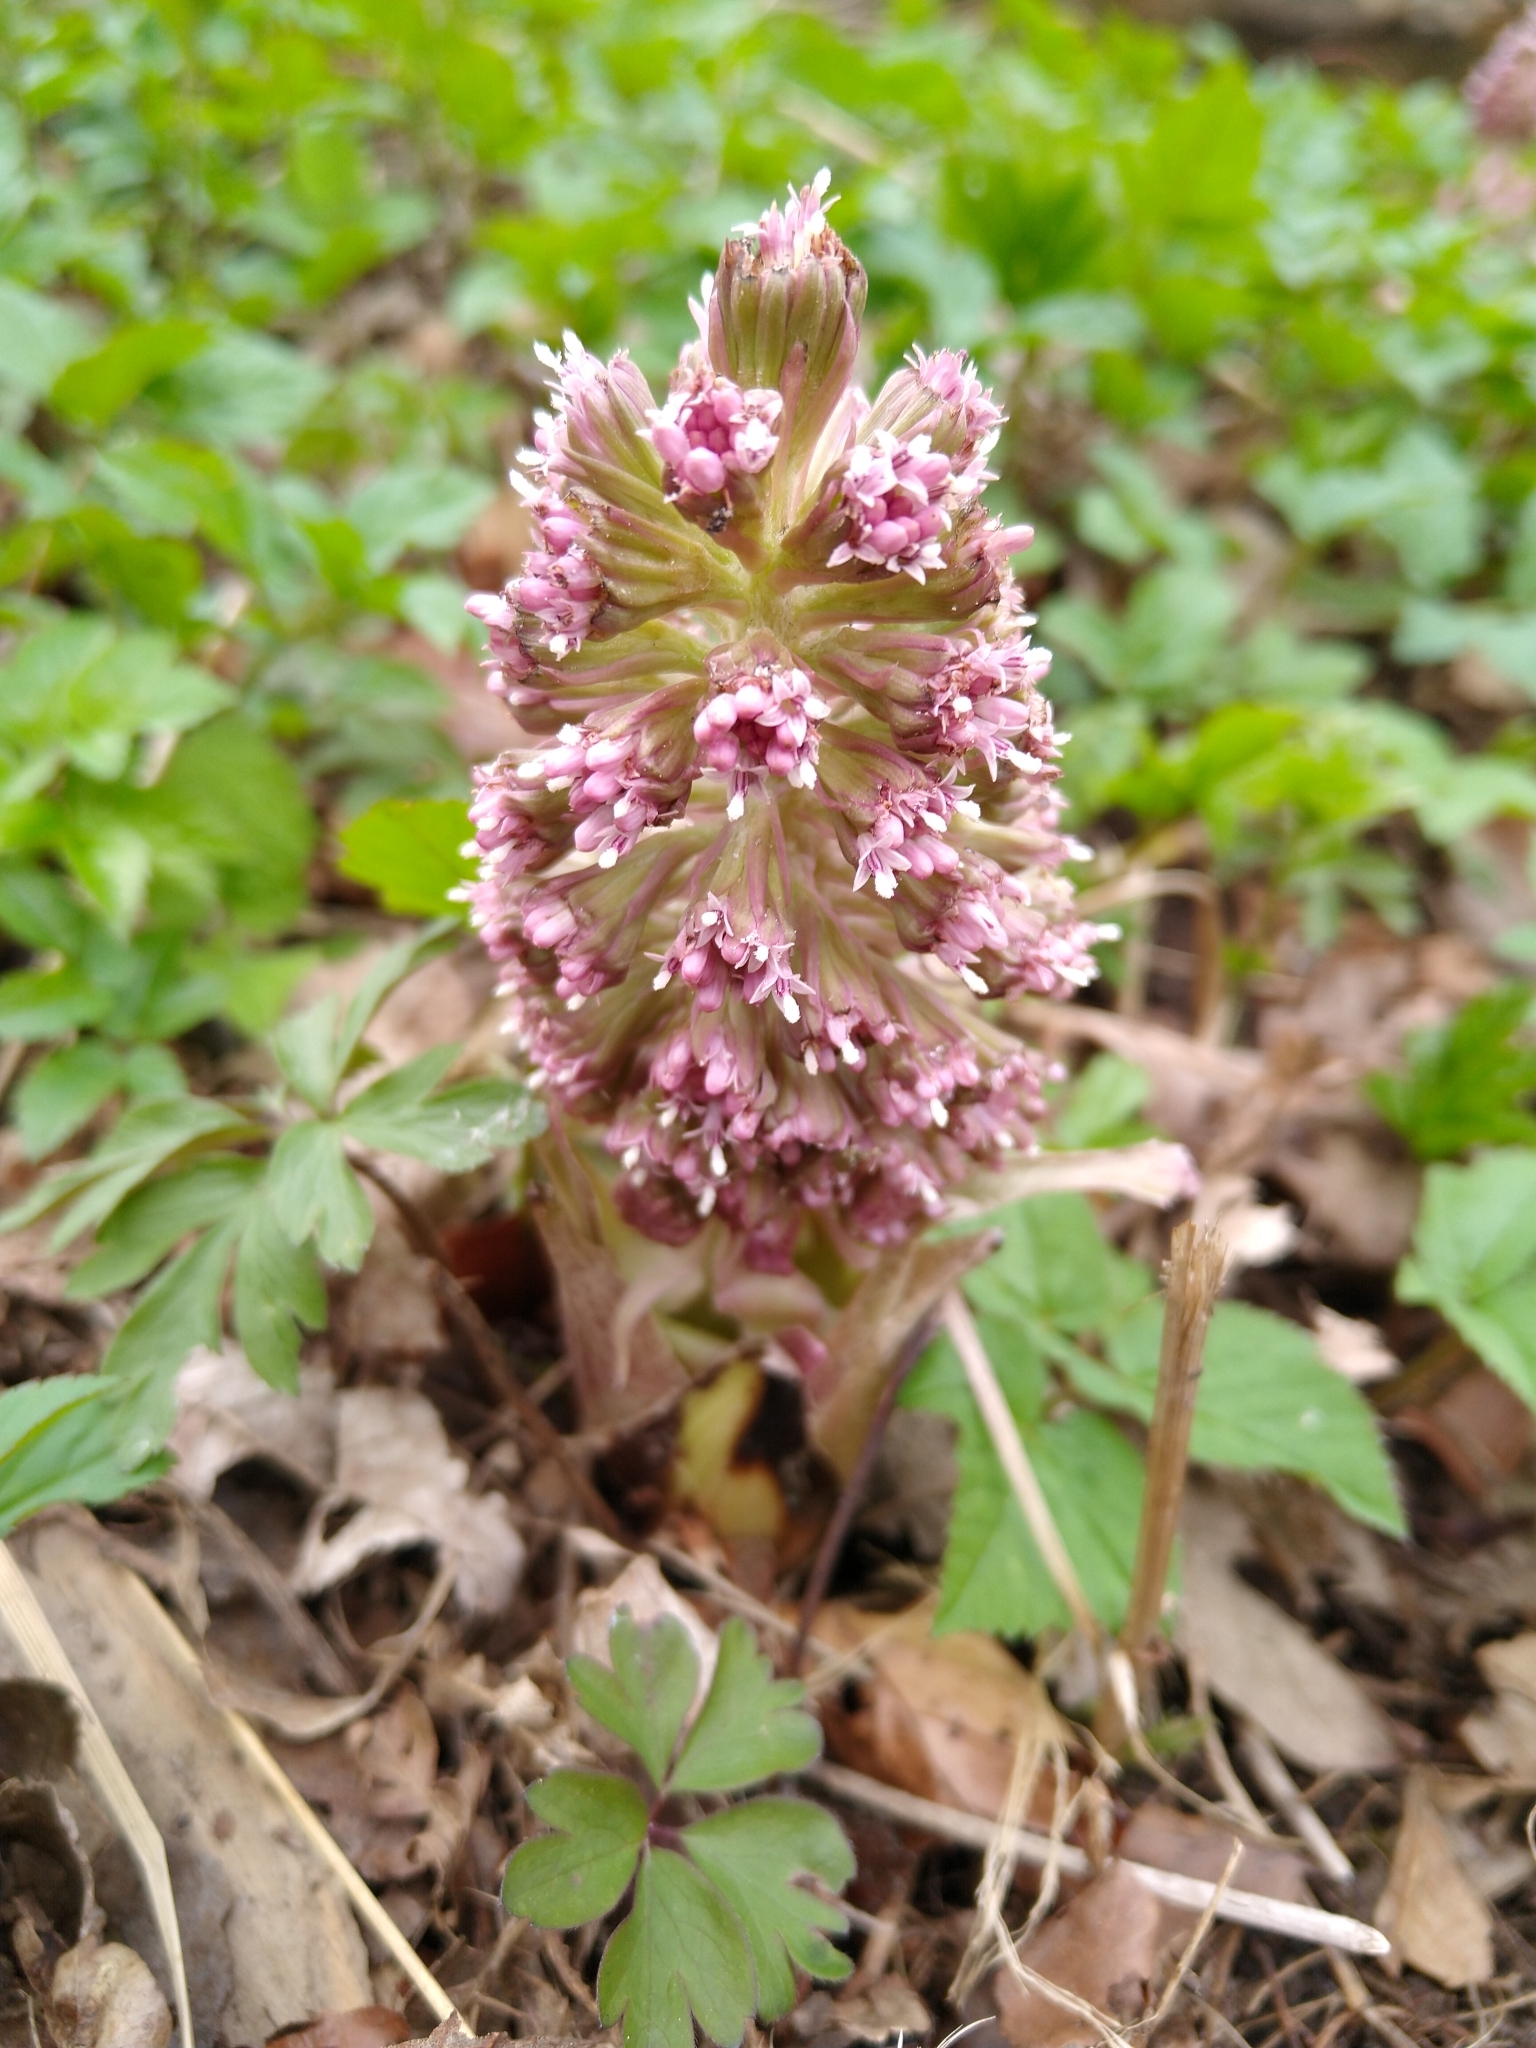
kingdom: Plantae
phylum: Tracheophyta
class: Magnoliopsida
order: Asterales
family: Asteraceae
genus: Petasites
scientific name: Petasites hybridus
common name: Butterbur
